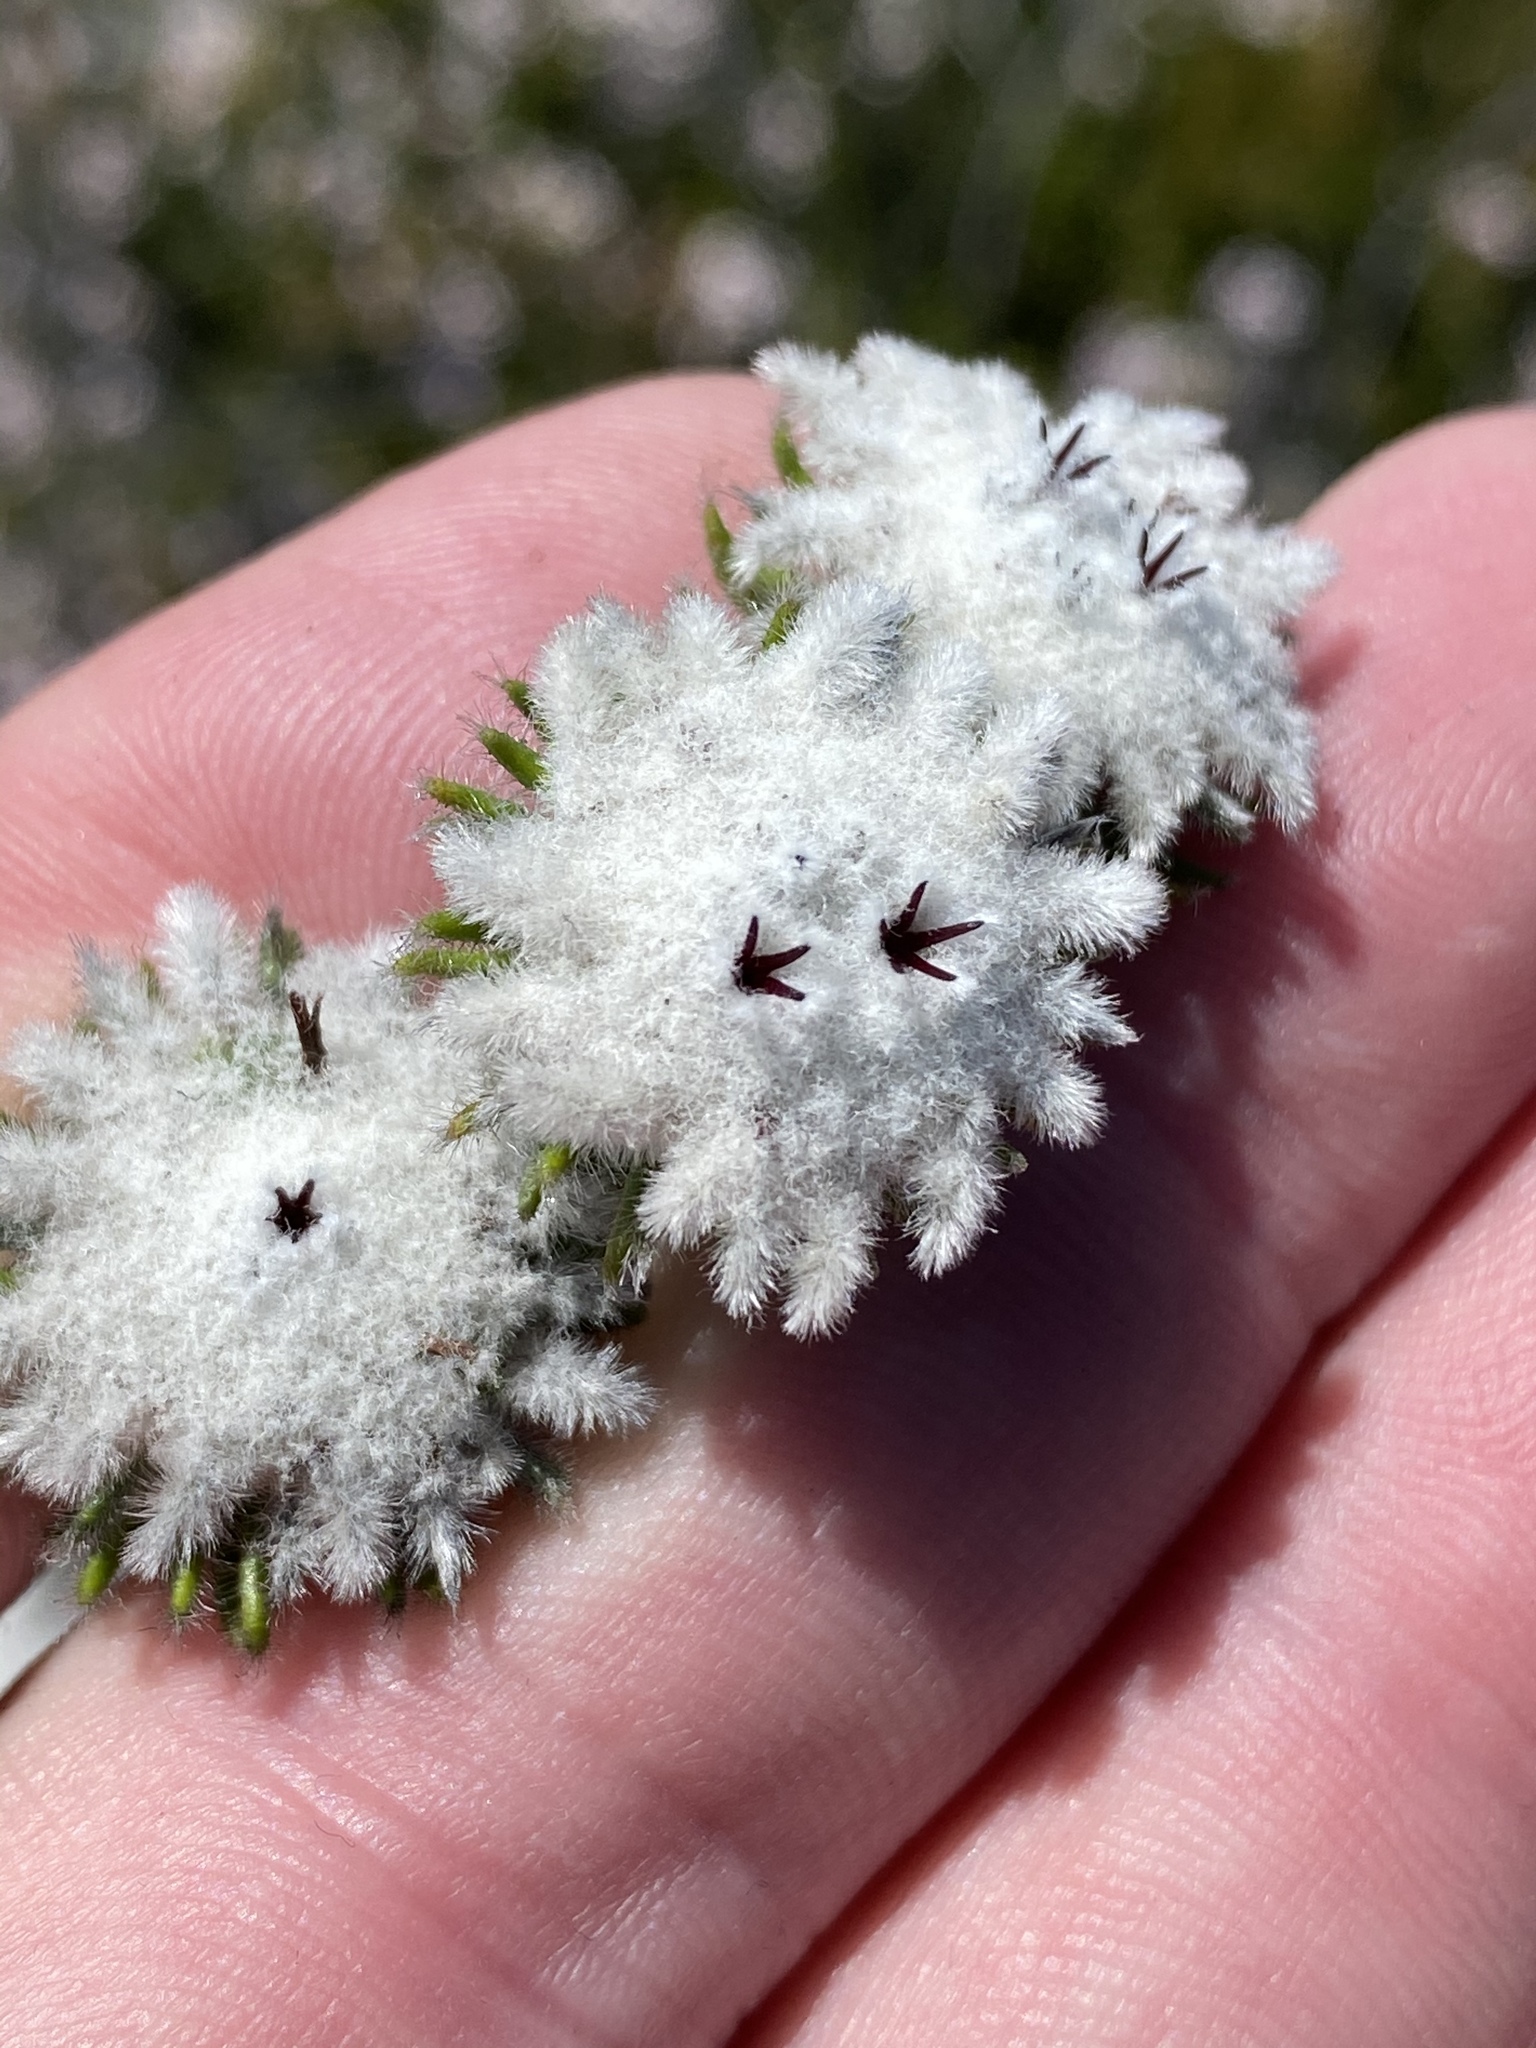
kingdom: Plantae
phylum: Tracheophyta
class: Magnoliopsida
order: Rosales
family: Rhamnaceae
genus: Phylica
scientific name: Phylica curvifolia
